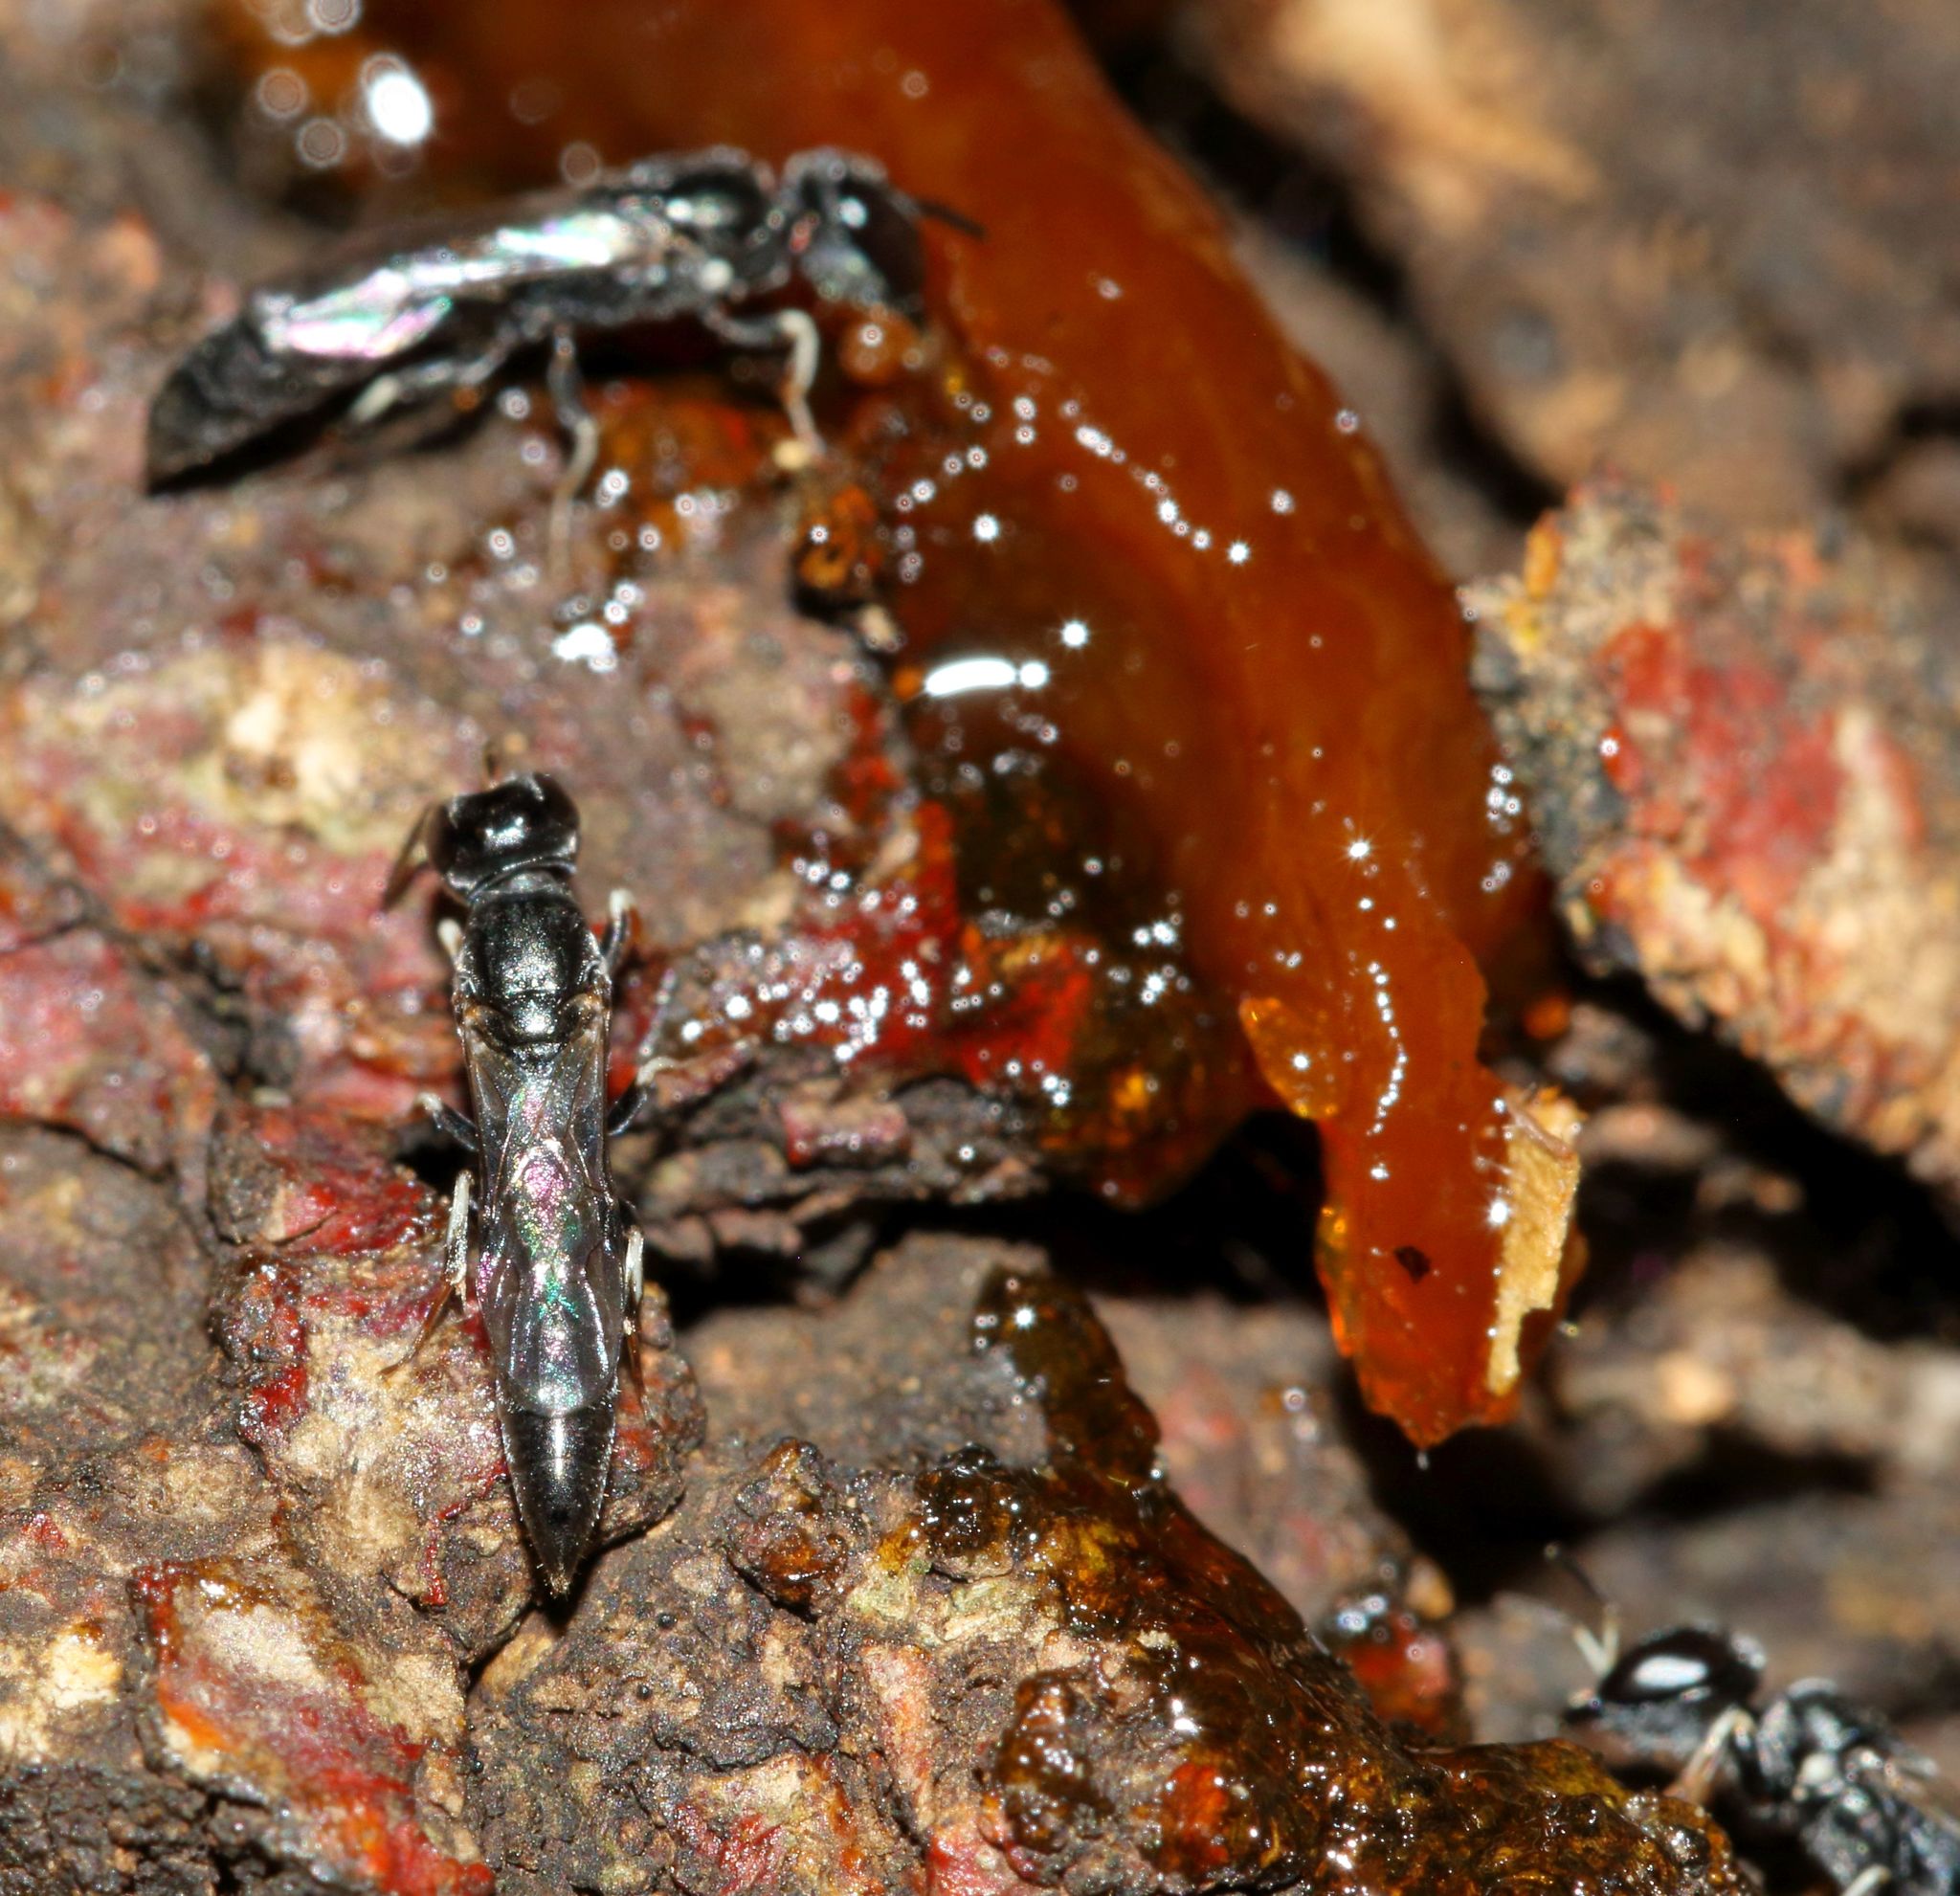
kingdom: Animalia
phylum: Arthropoda
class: Insecta
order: Hymenoptera
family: Crabronidae
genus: Polemistus
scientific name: Polemistus braunsii
